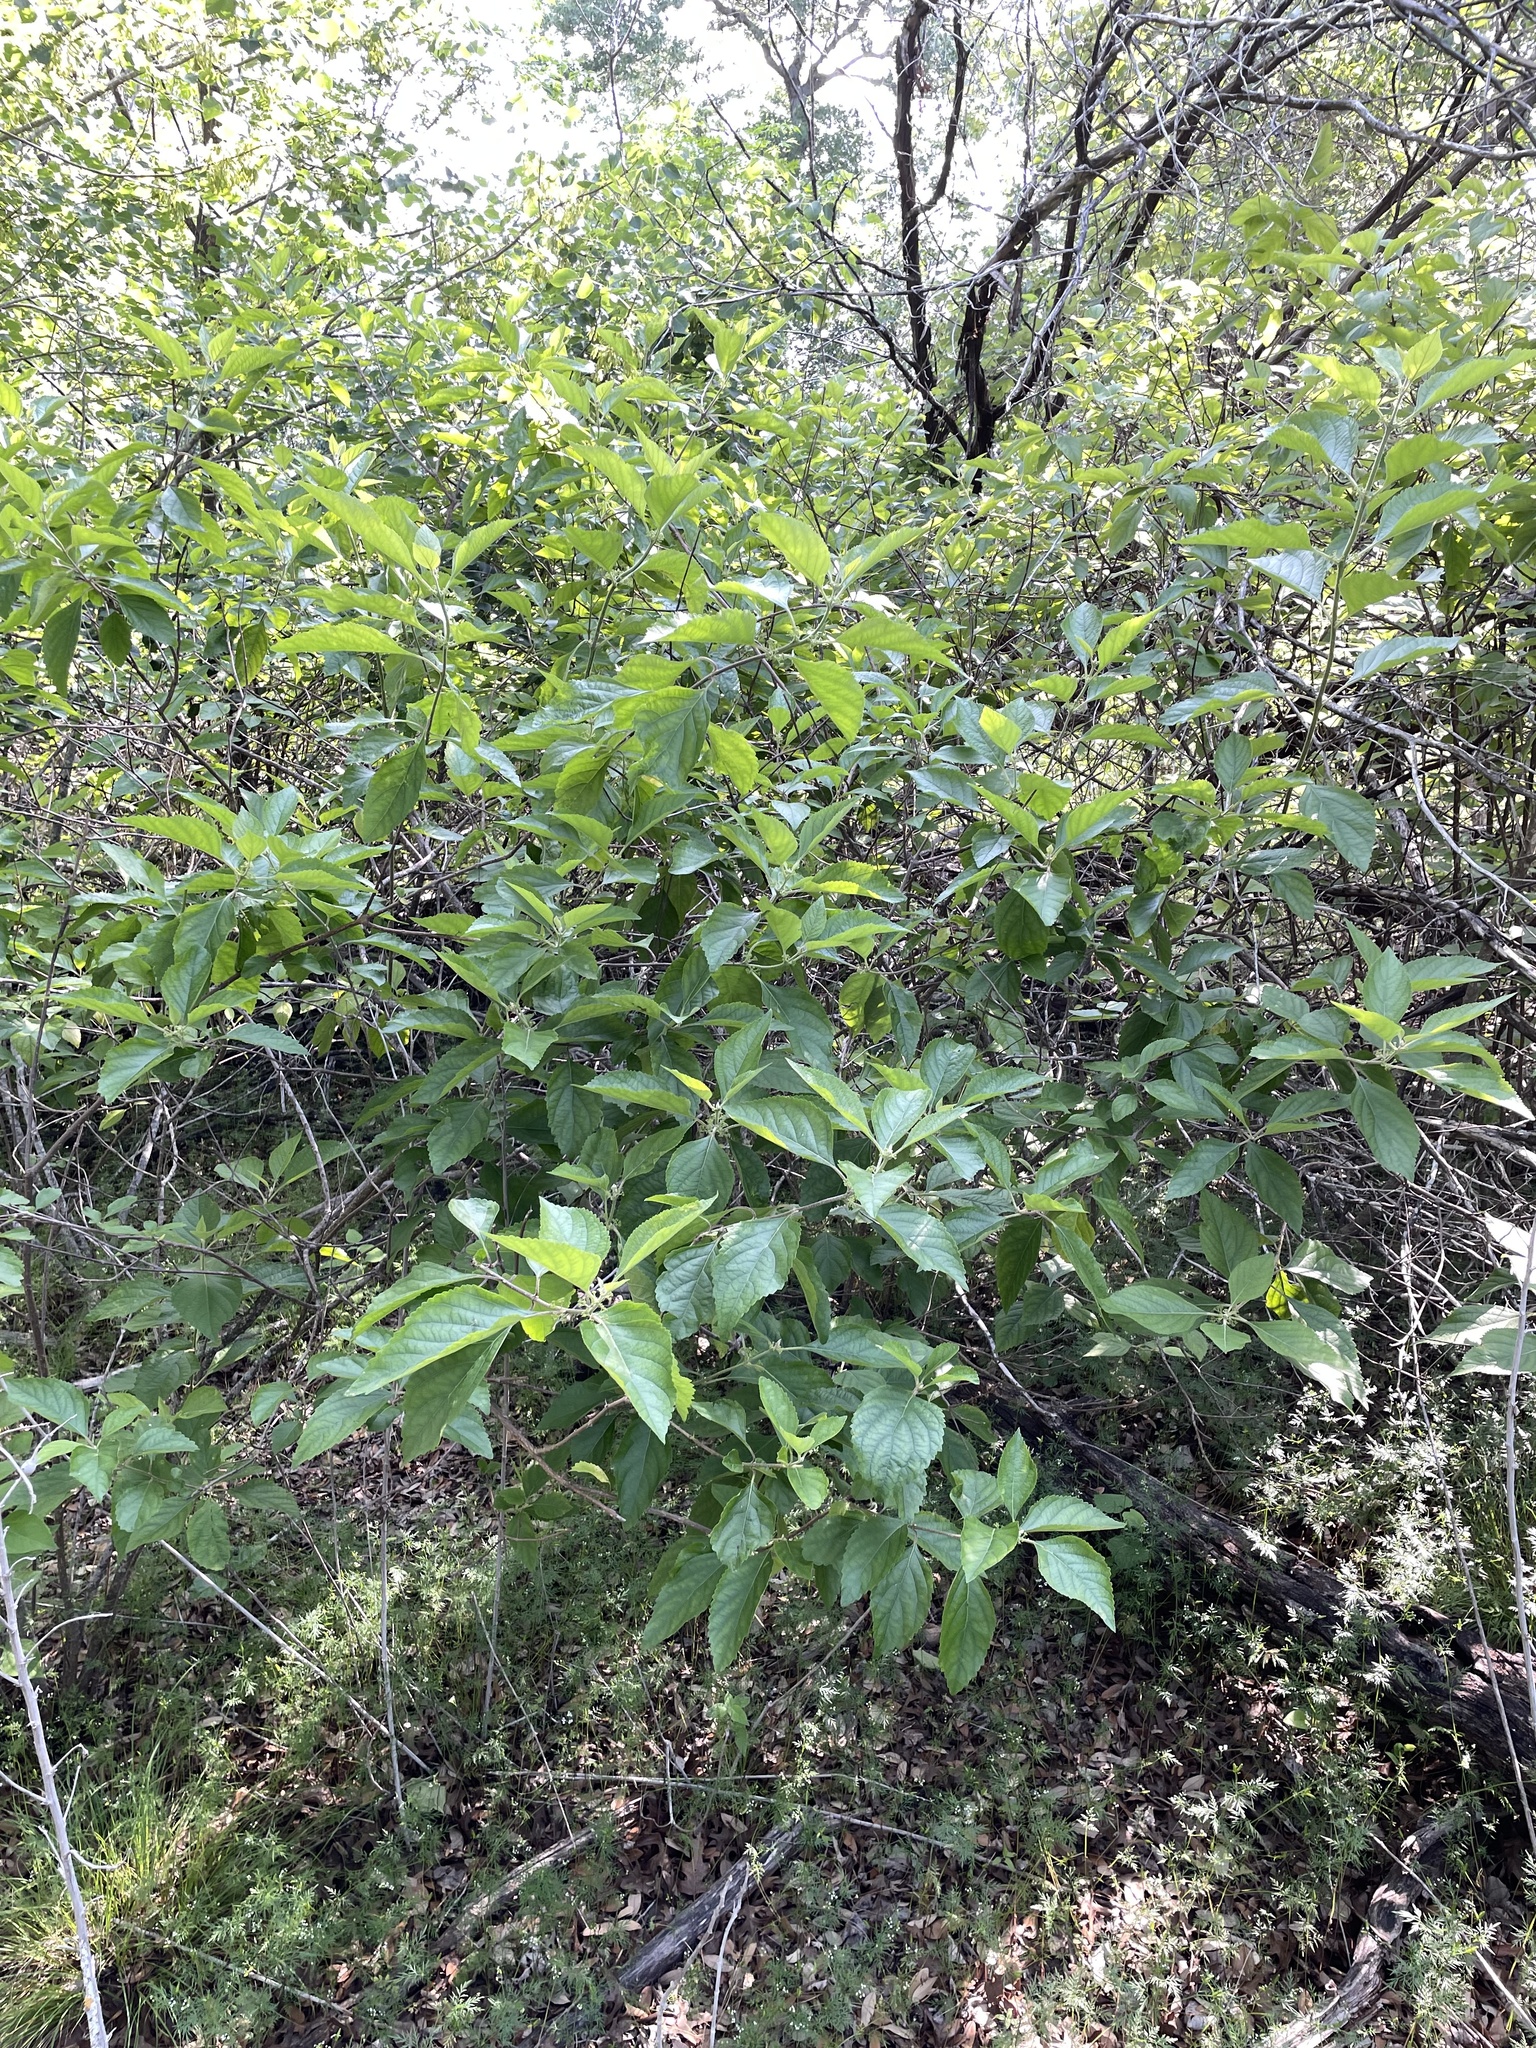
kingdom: Plantae
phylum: Tracheophyta
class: Magnoliopsida
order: Lamiales
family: Lamiaceae
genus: Callicarpa
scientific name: Callicarpa americana
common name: American beautyberry
